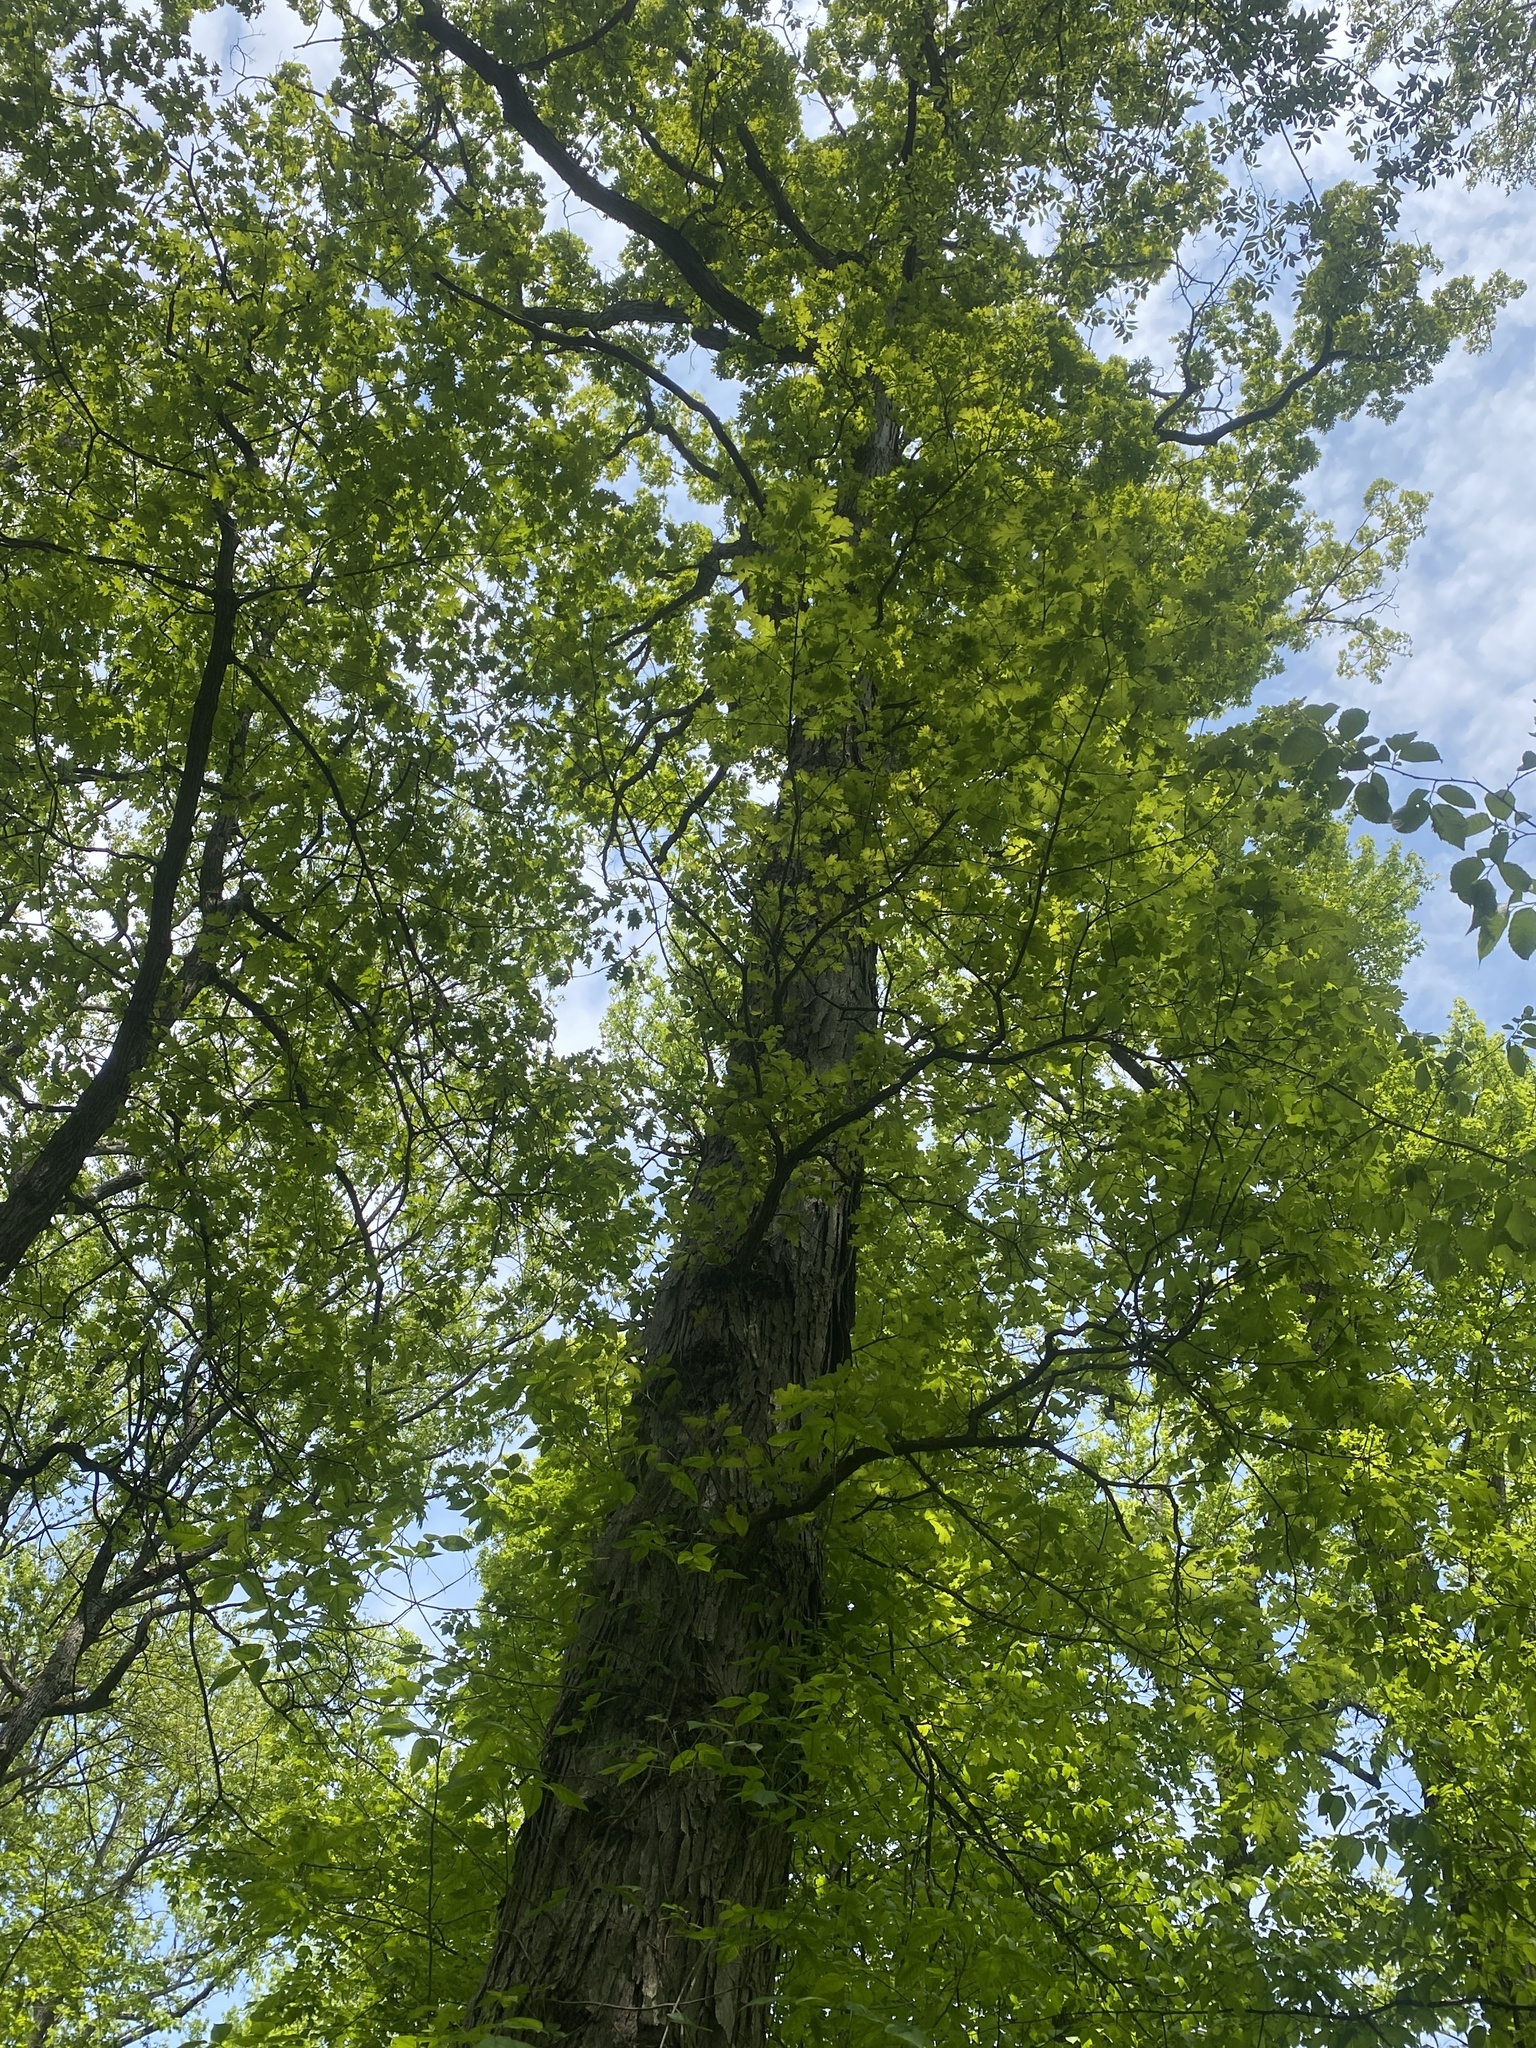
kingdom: Plantae
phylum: Tracheophyta
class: Magnoliopsida
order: Fagales
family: Fagaceae
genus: Quercus
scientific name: Quercus alba
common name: White oak
